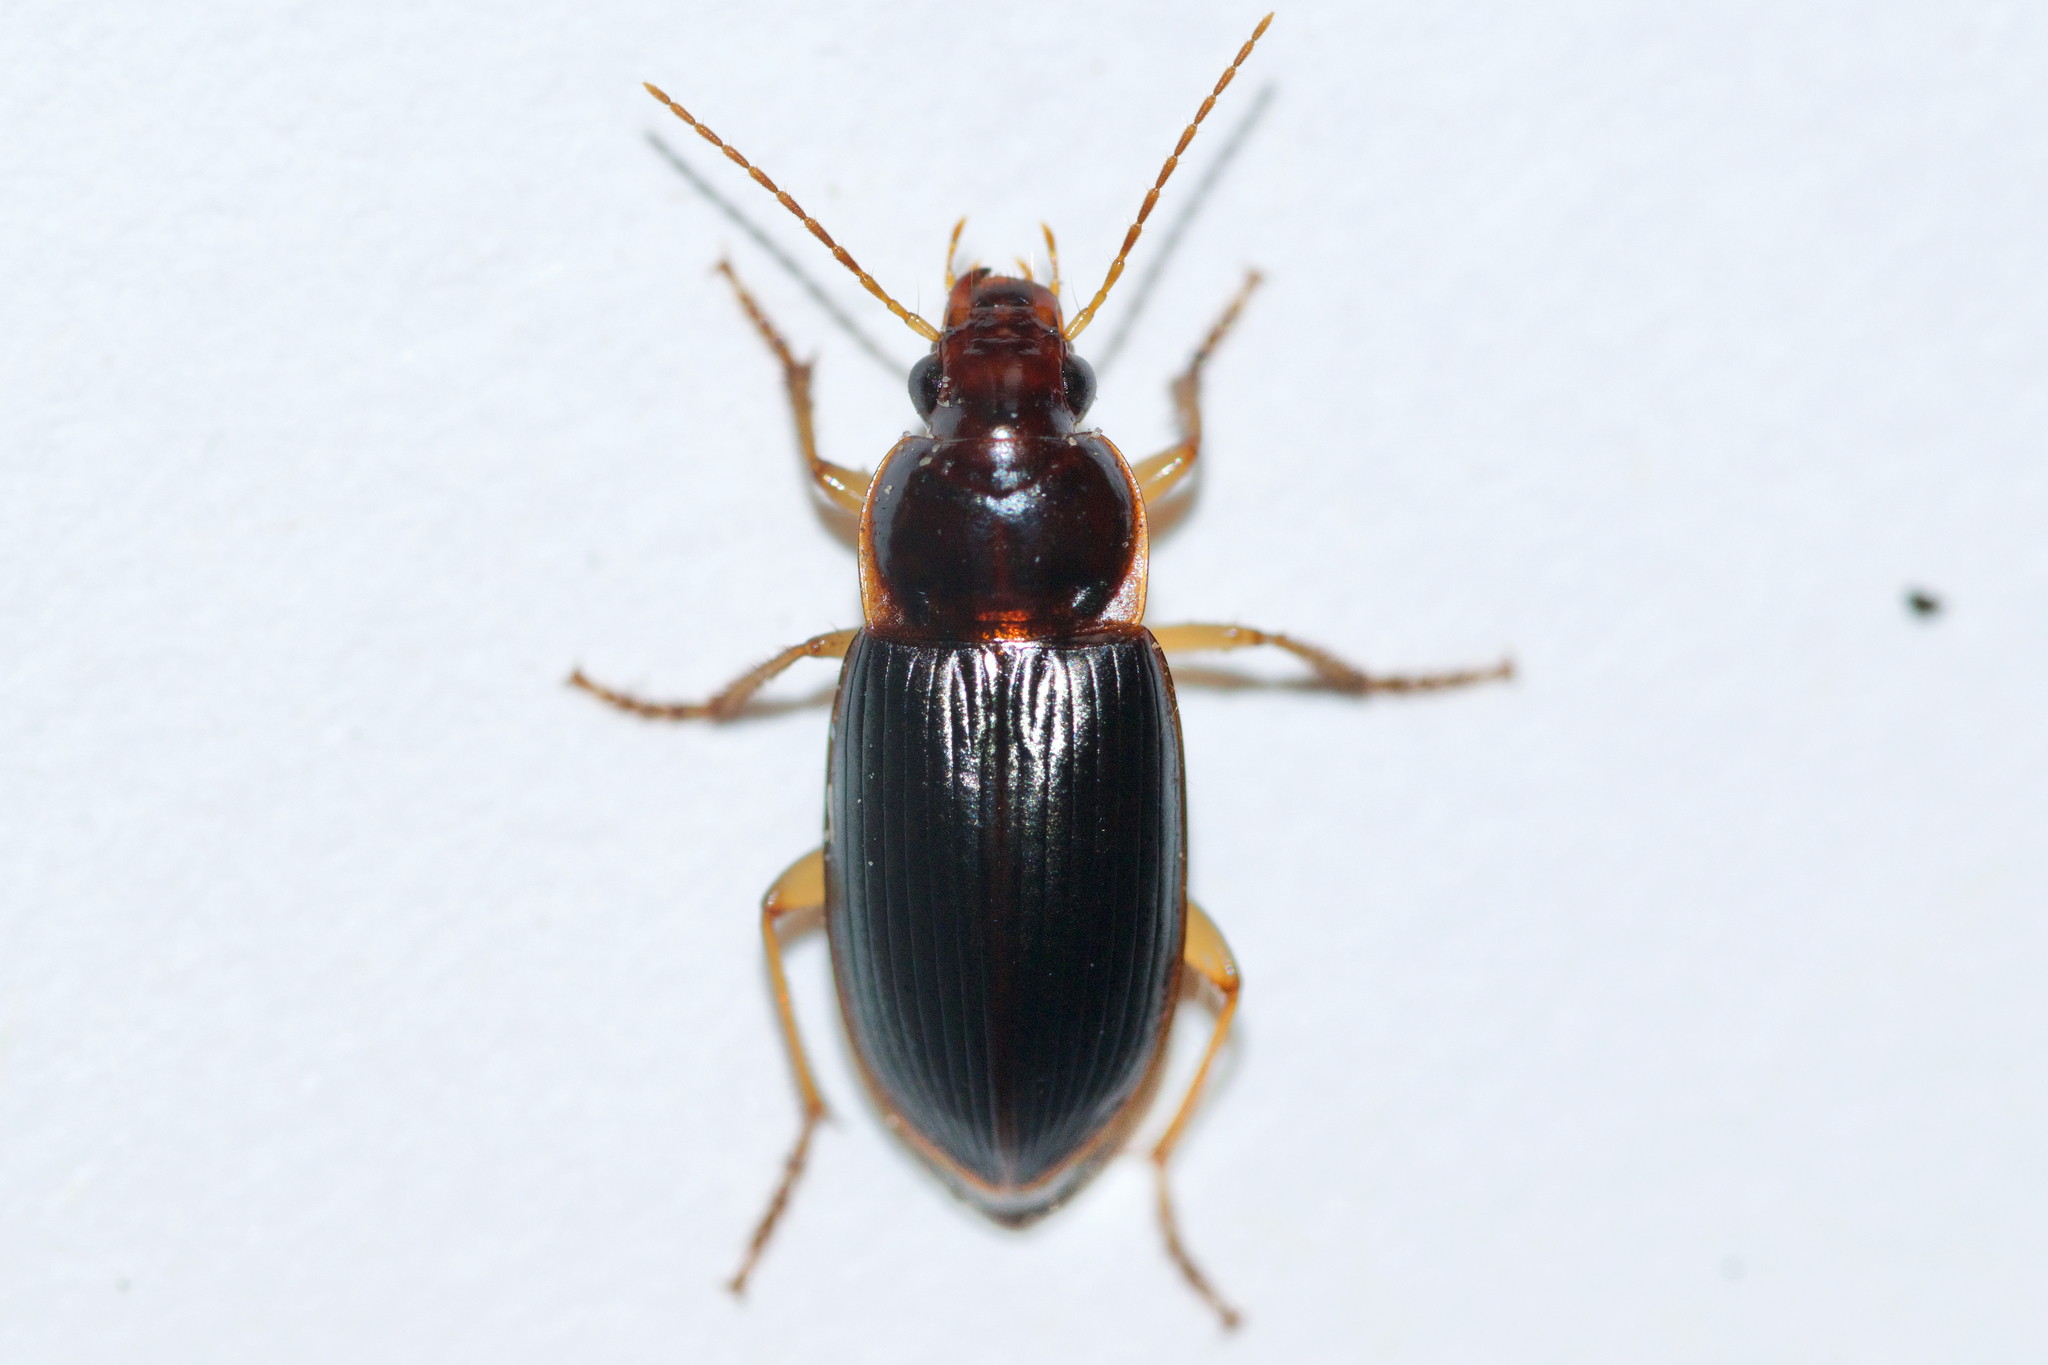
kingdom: Animalia
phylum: Arthropoda
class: Insecta
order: Coleoptera
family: Carabidae
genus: Notiobia
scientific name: Notiobia terminata
